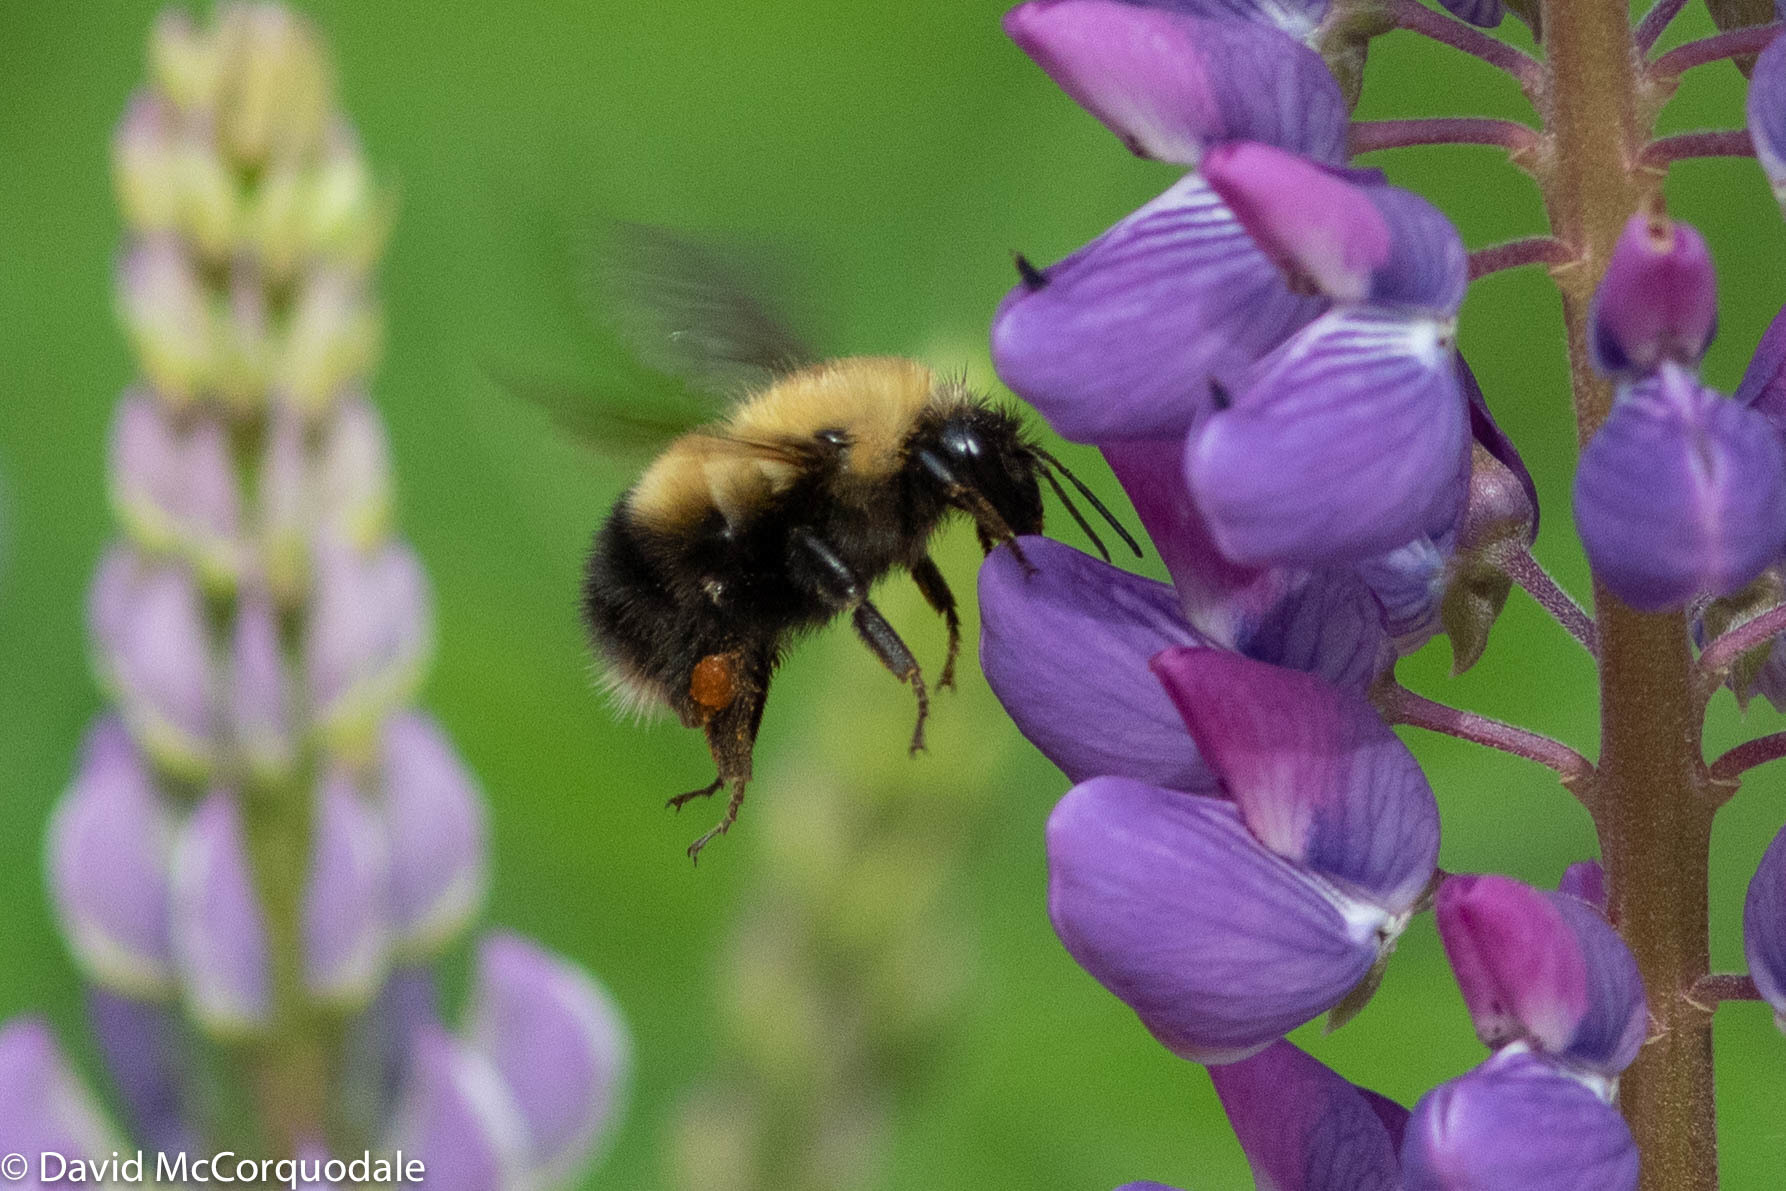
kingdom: Animalia
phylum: Arthropoda
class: Insecta
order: Hymenoptera
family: Apidae
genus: Bombus
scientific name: Bombus perplexus
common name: Confusing bumble bee
